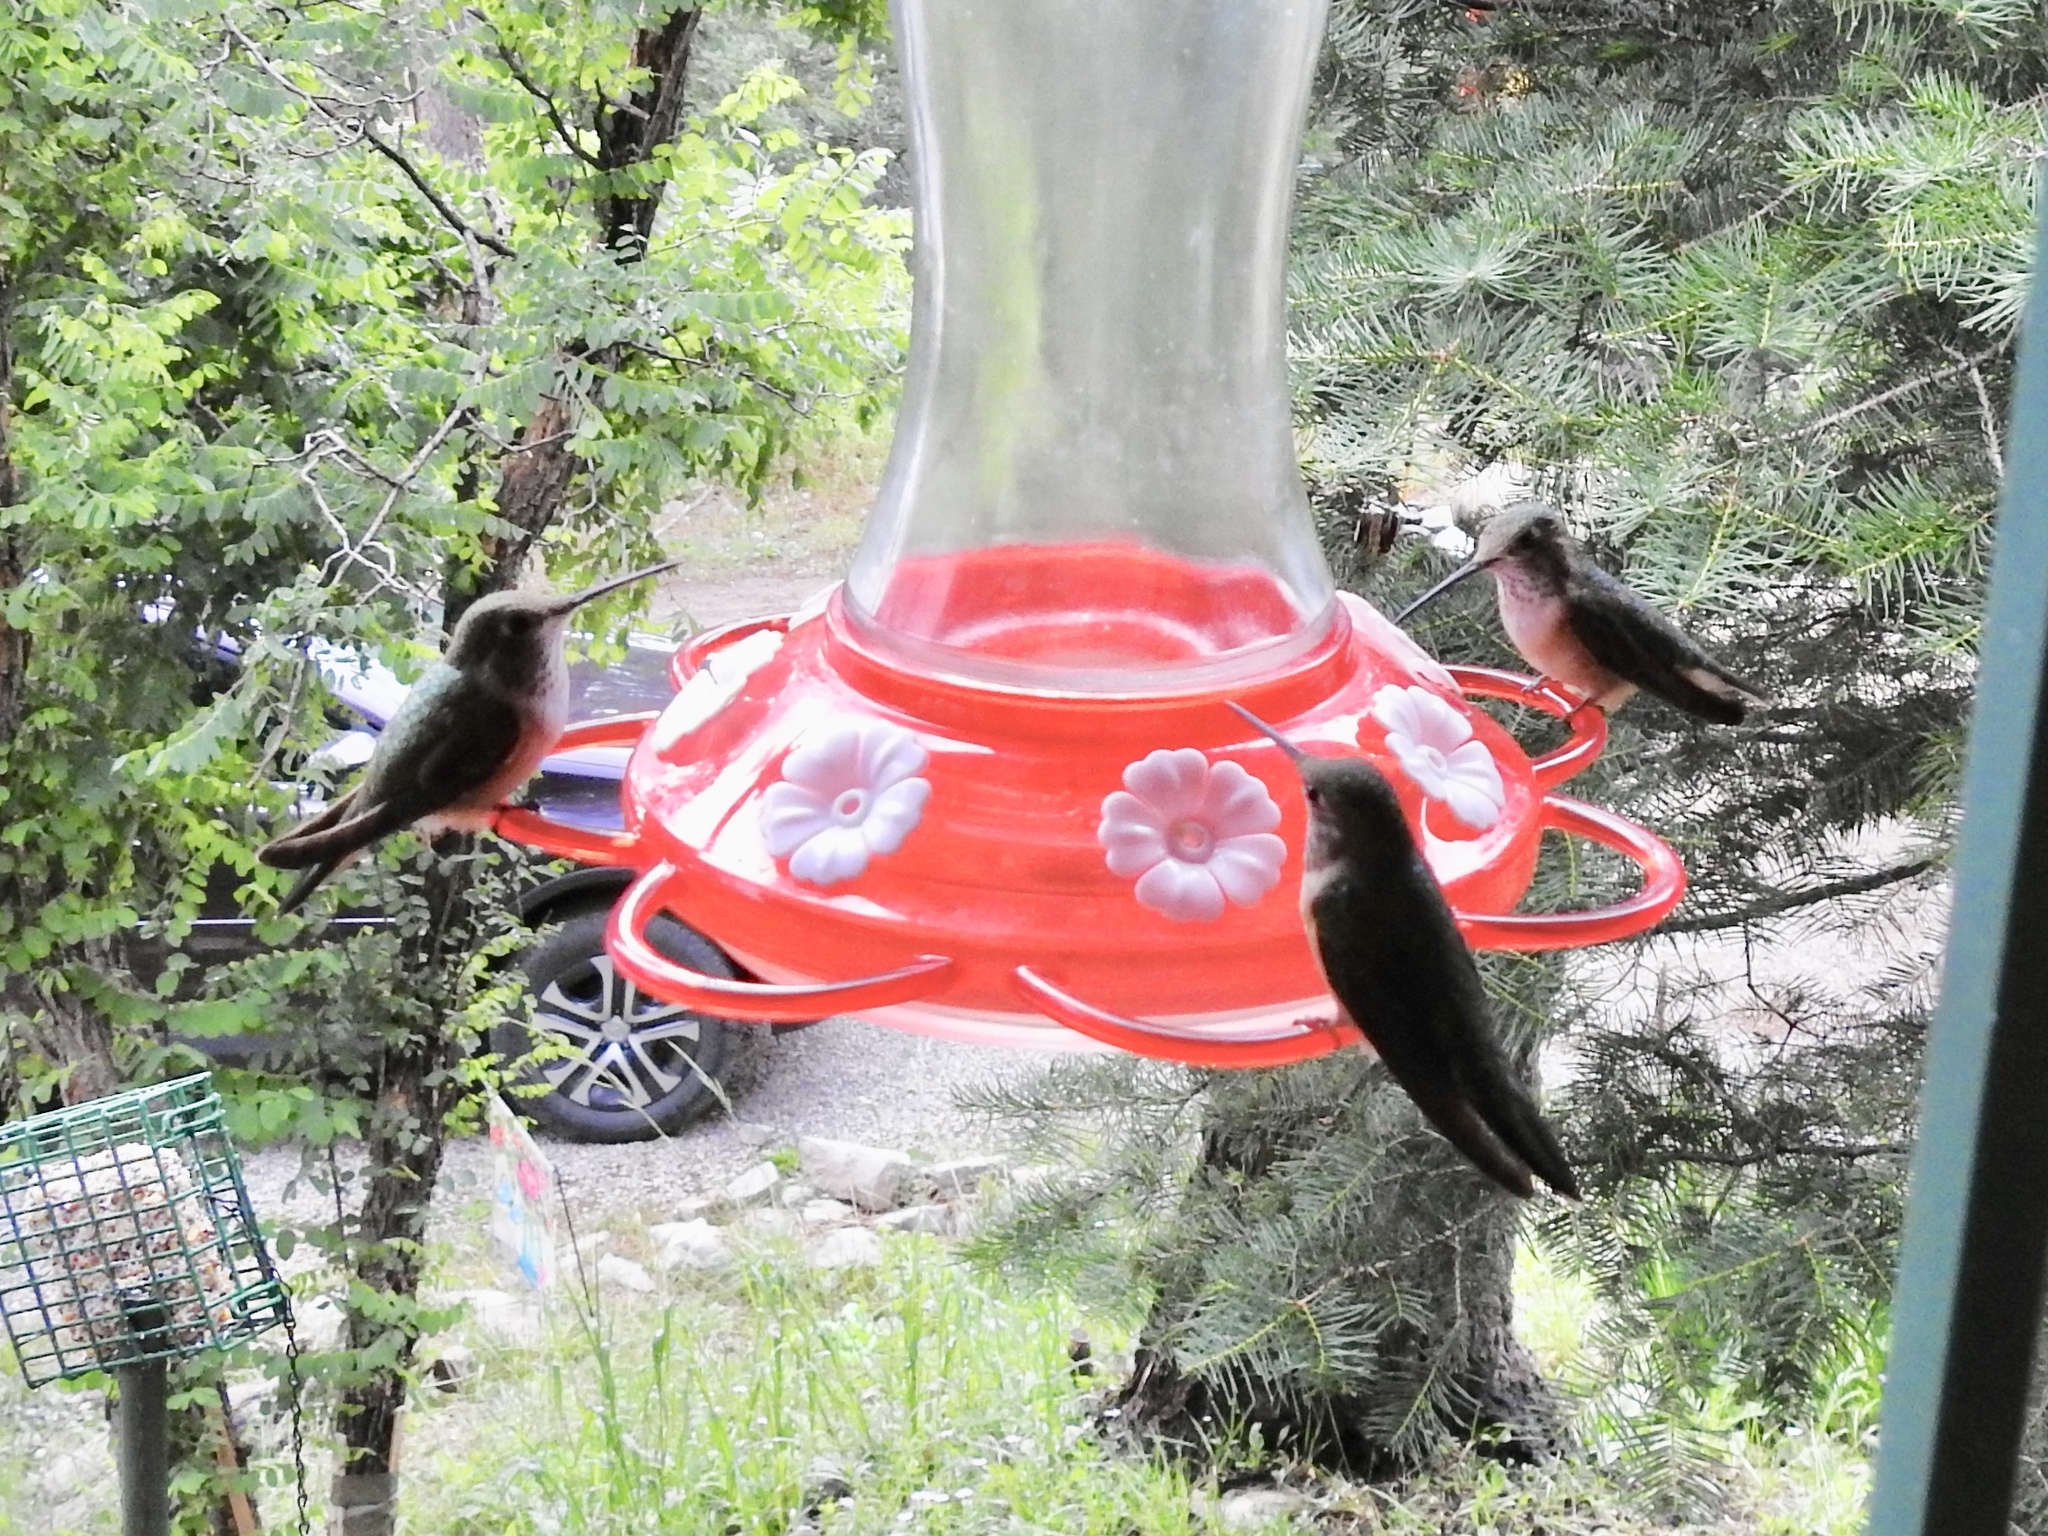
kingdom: Animalia
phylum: Chordata
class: Aves
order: Apodiformes
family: Trochilidae
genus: Selasphorus
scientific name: Selasphorus platycercus
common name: Broad-tailed hummingbird
